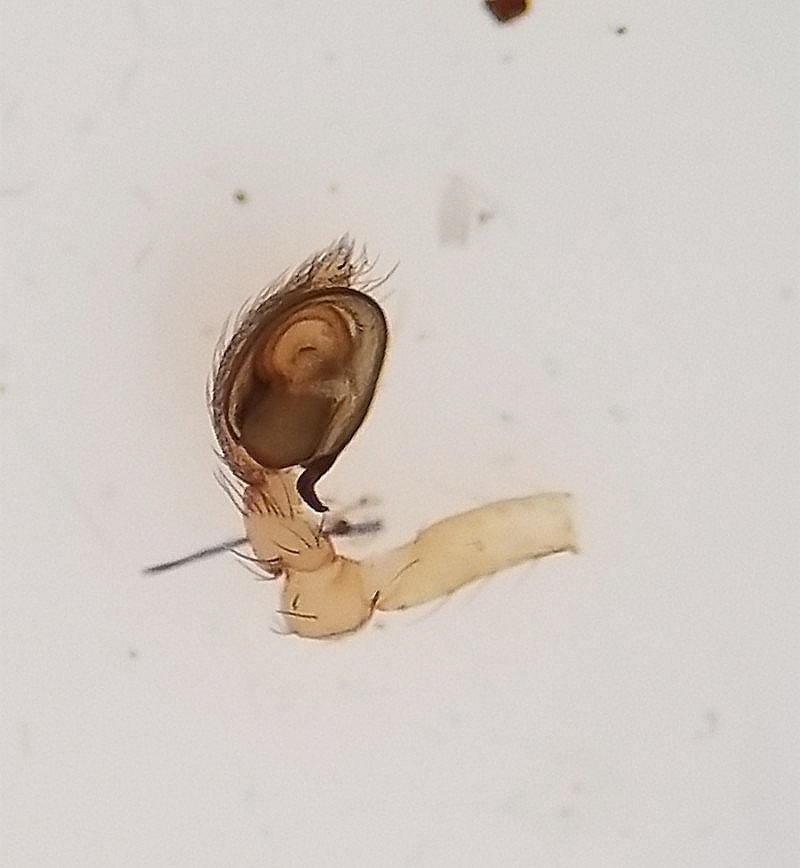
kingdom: Animalia
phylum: Arthropoda
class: Arachnida
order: Araneae
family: Dictynidae
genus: Phantyna
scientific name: Phantyna terranea
